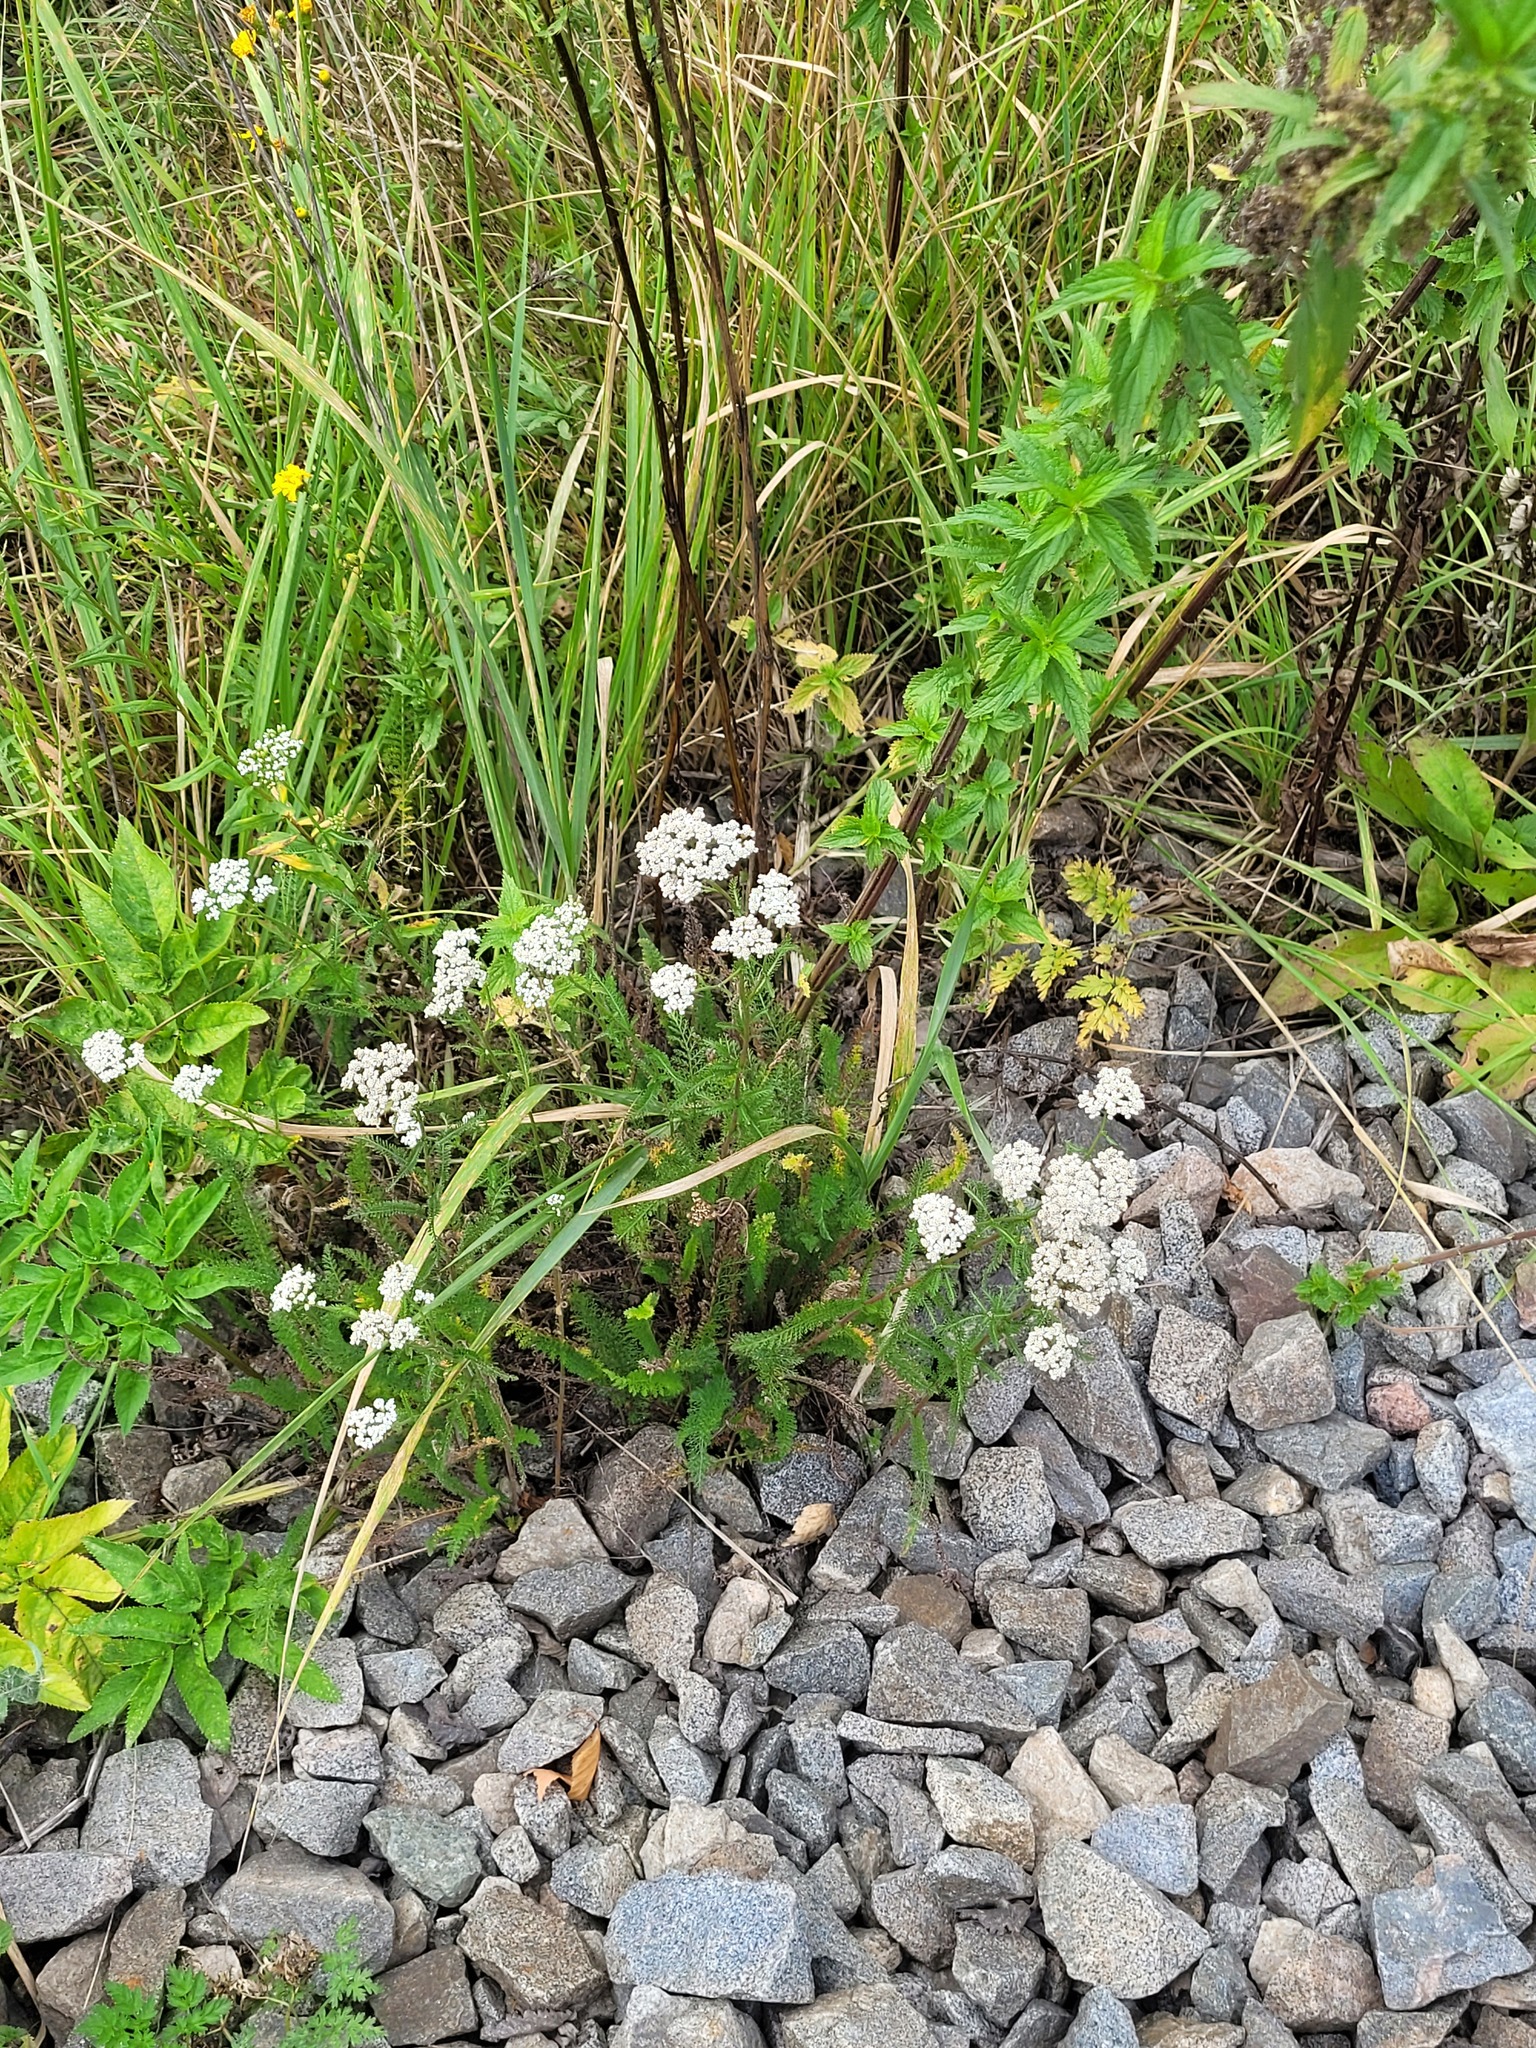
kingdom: Plantae
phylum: Tracheophyta
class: Magnoliopsida
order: Asterales
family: Asteraceae
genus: Achillea
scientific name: Achillea millefolium
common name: Yarrow
